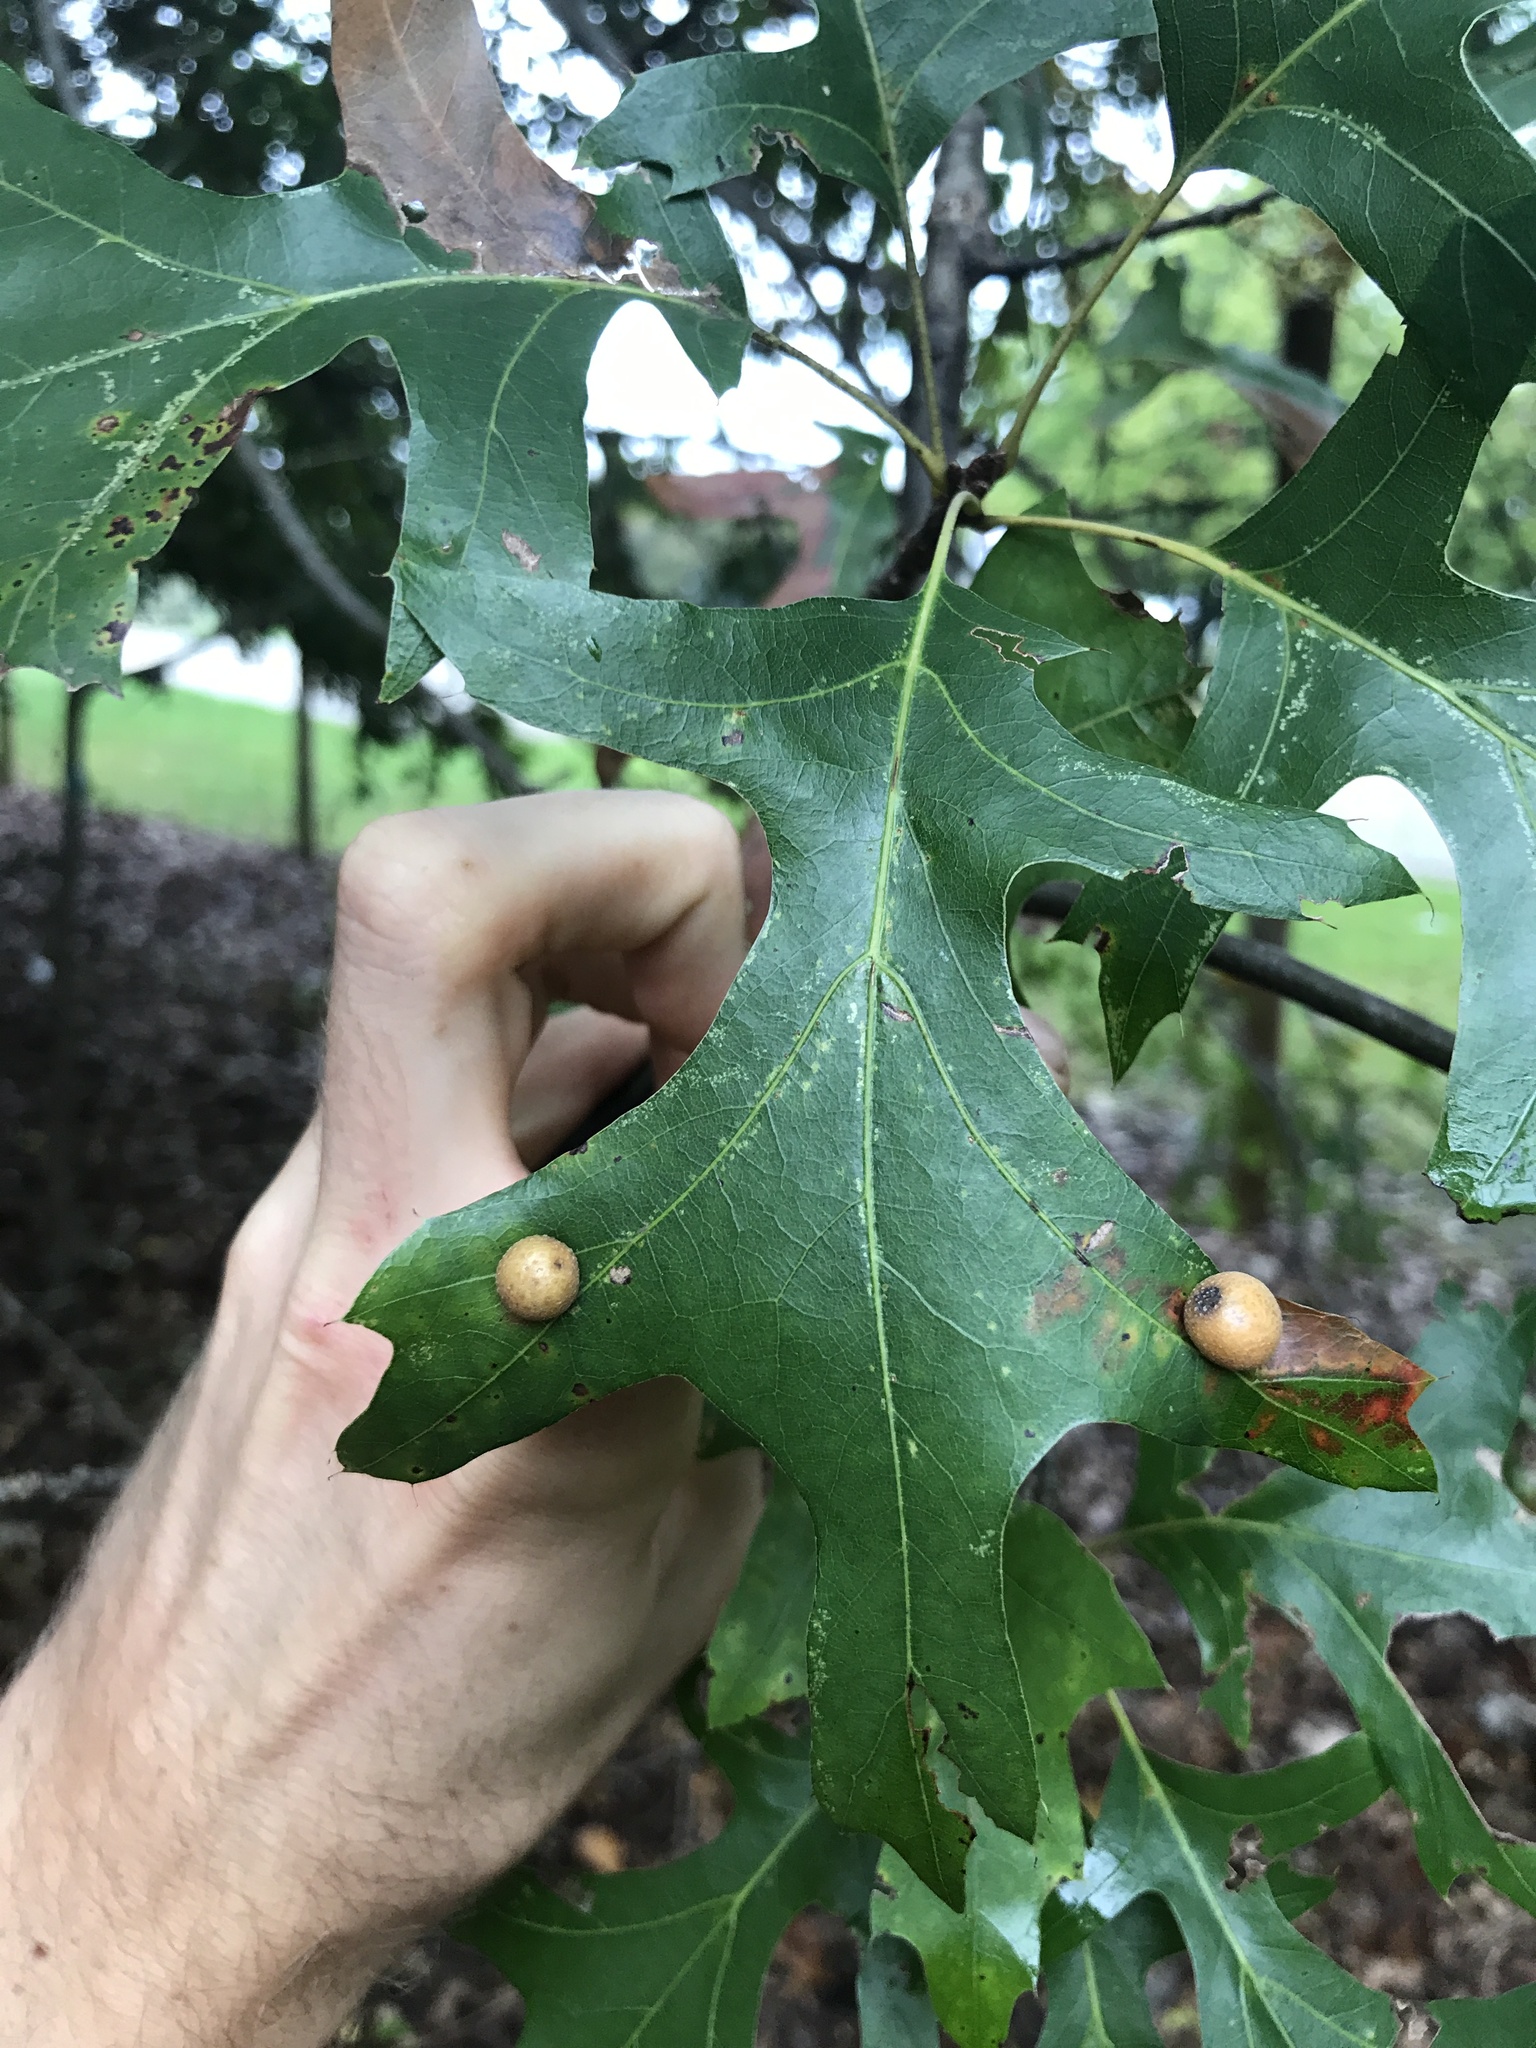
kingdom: Animalia
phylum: Arthropoda
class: Insecta
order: Diptera
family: Cecidomyiidae
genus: Polystepha
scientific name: Polystepha pilulae
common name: Oak leaf gall midge
